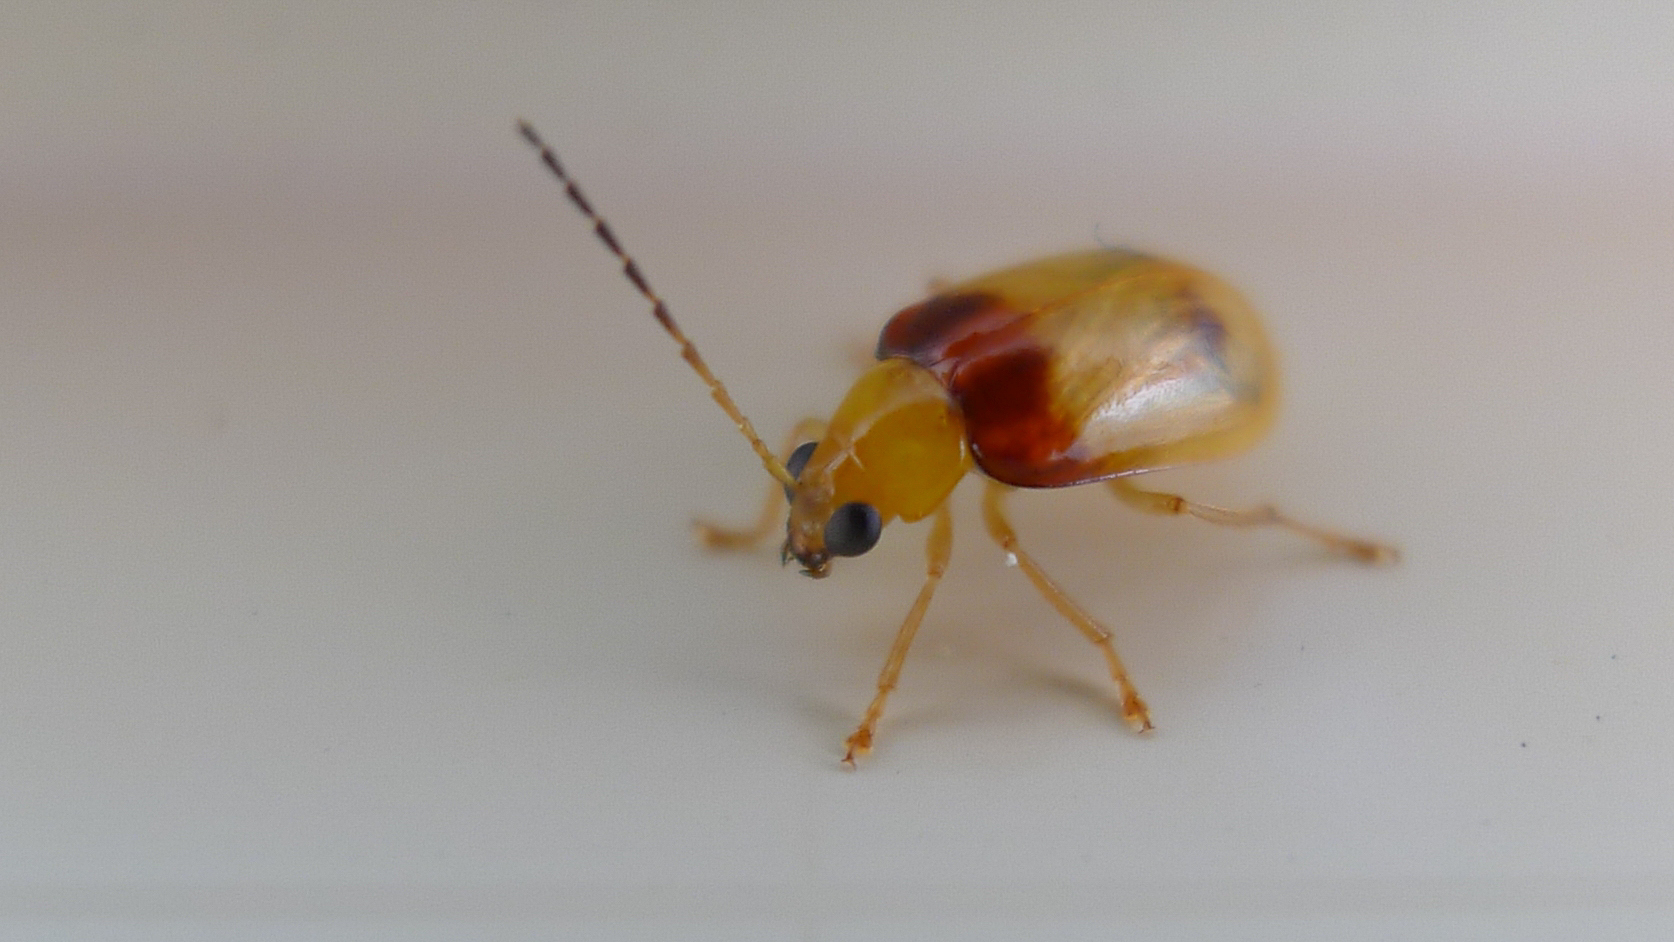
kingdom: Animalia
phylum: Arthropoda
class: Insecta
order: Coleoptera
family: Chrysomelidae
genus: Monolepta
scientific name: Monolepta
